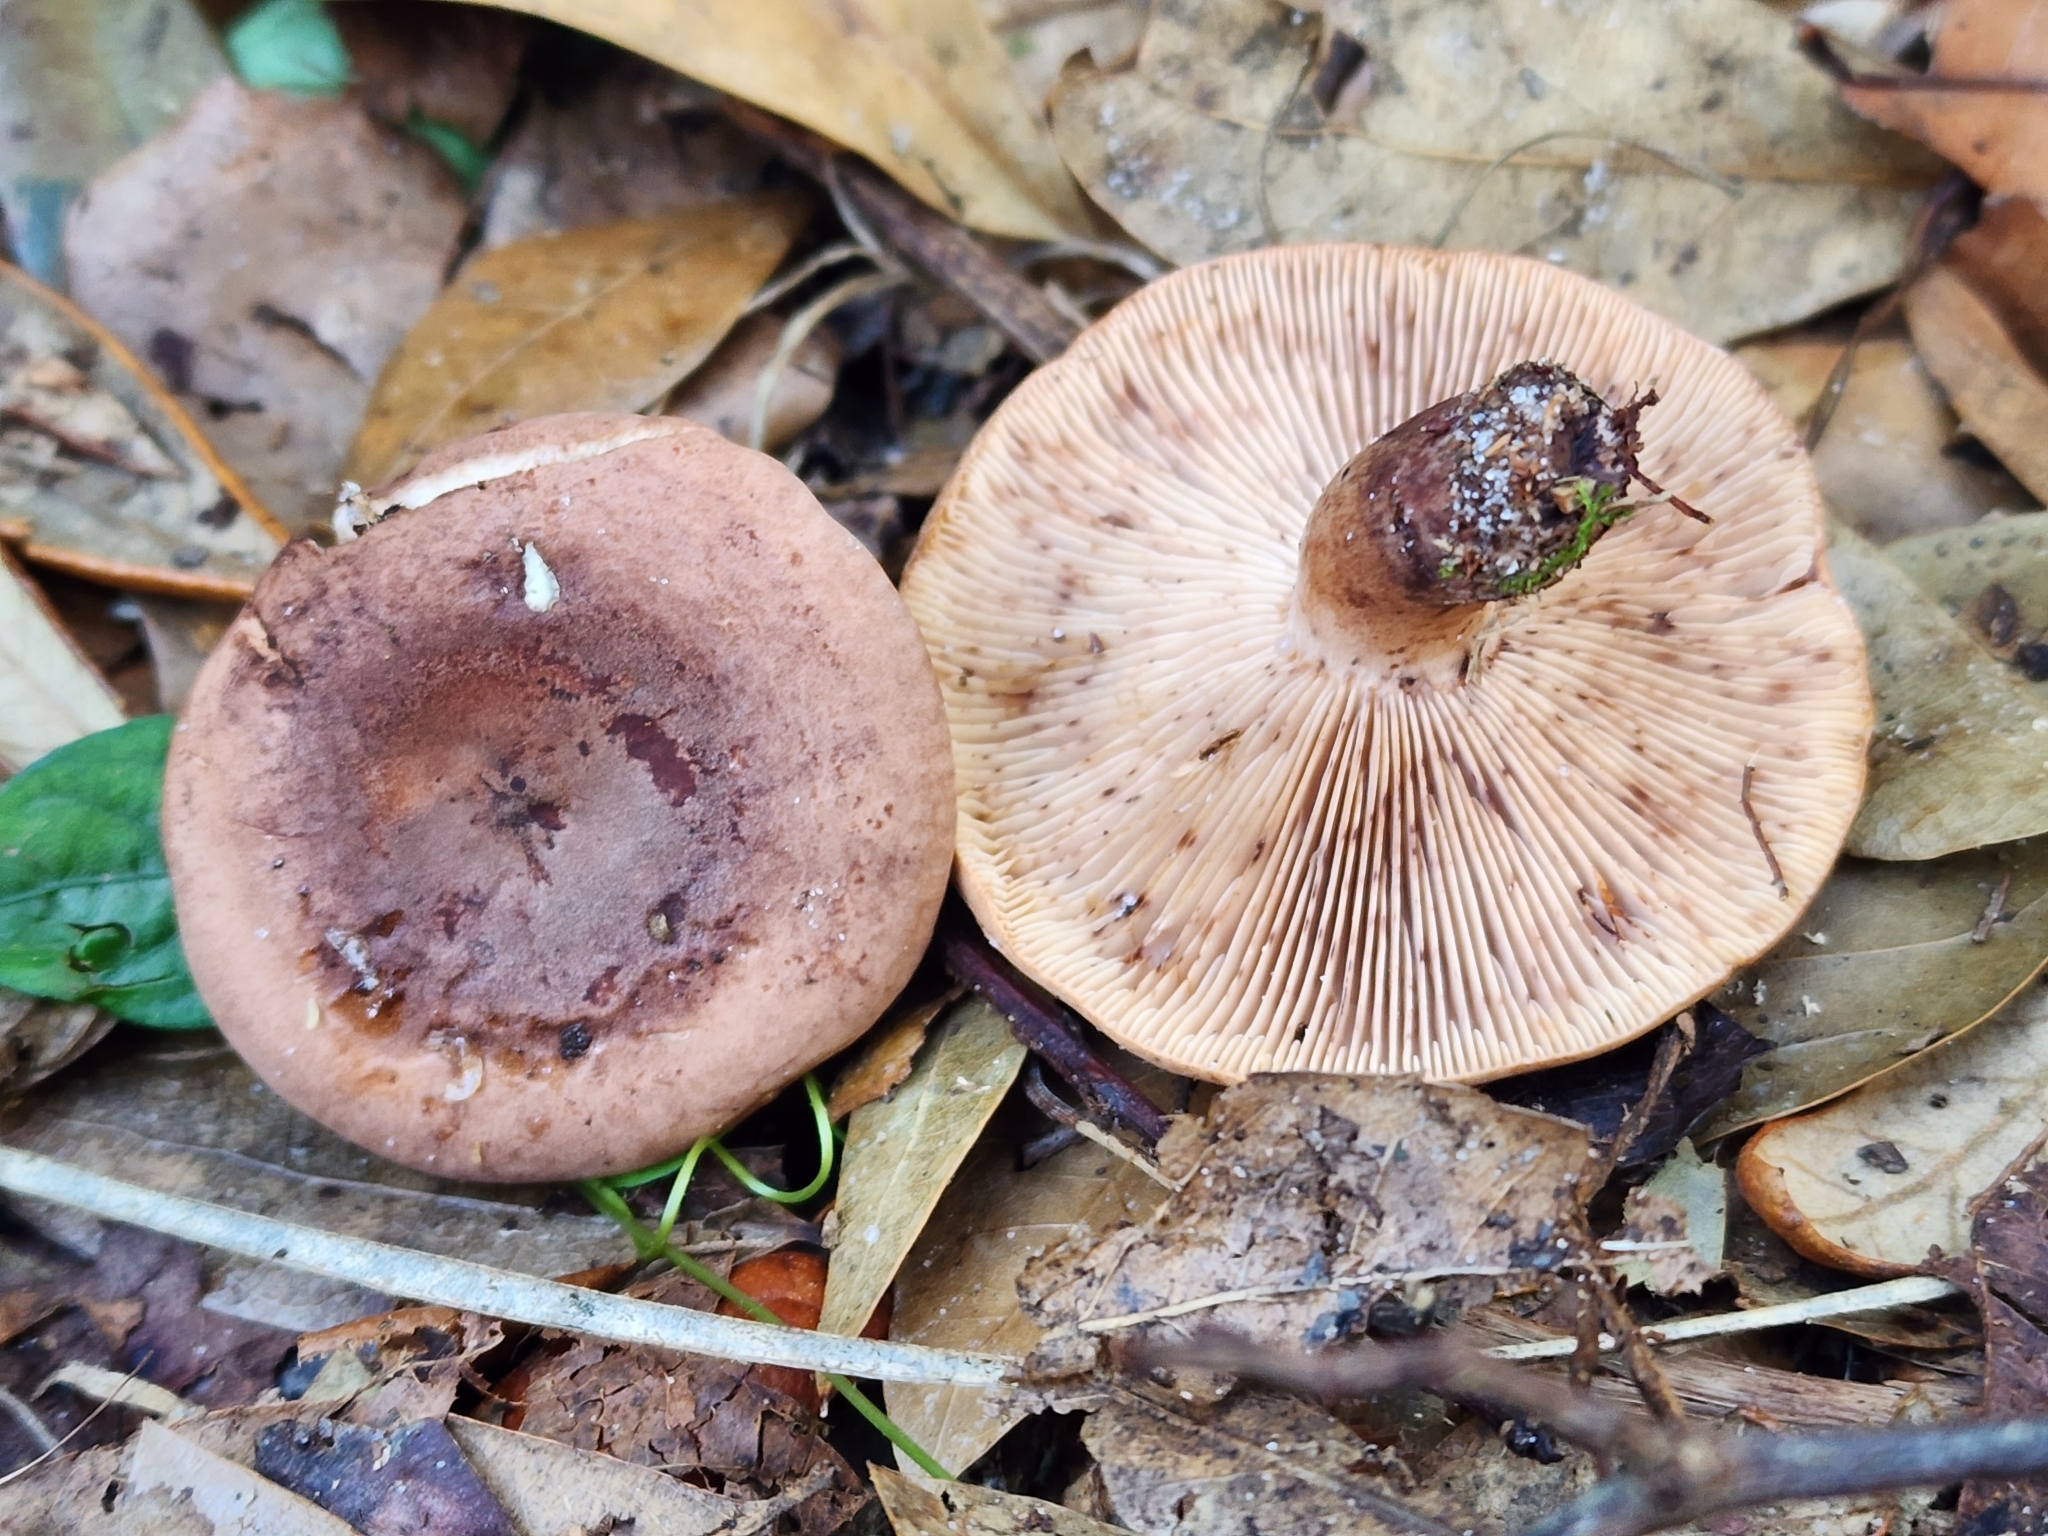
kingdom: Fungi
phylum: Basidiomycota
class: Agaricomycetes
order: Russulales
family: Russulaceae
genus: Lactarius
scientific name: Lactarius quietus
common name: Oak milk-cap
